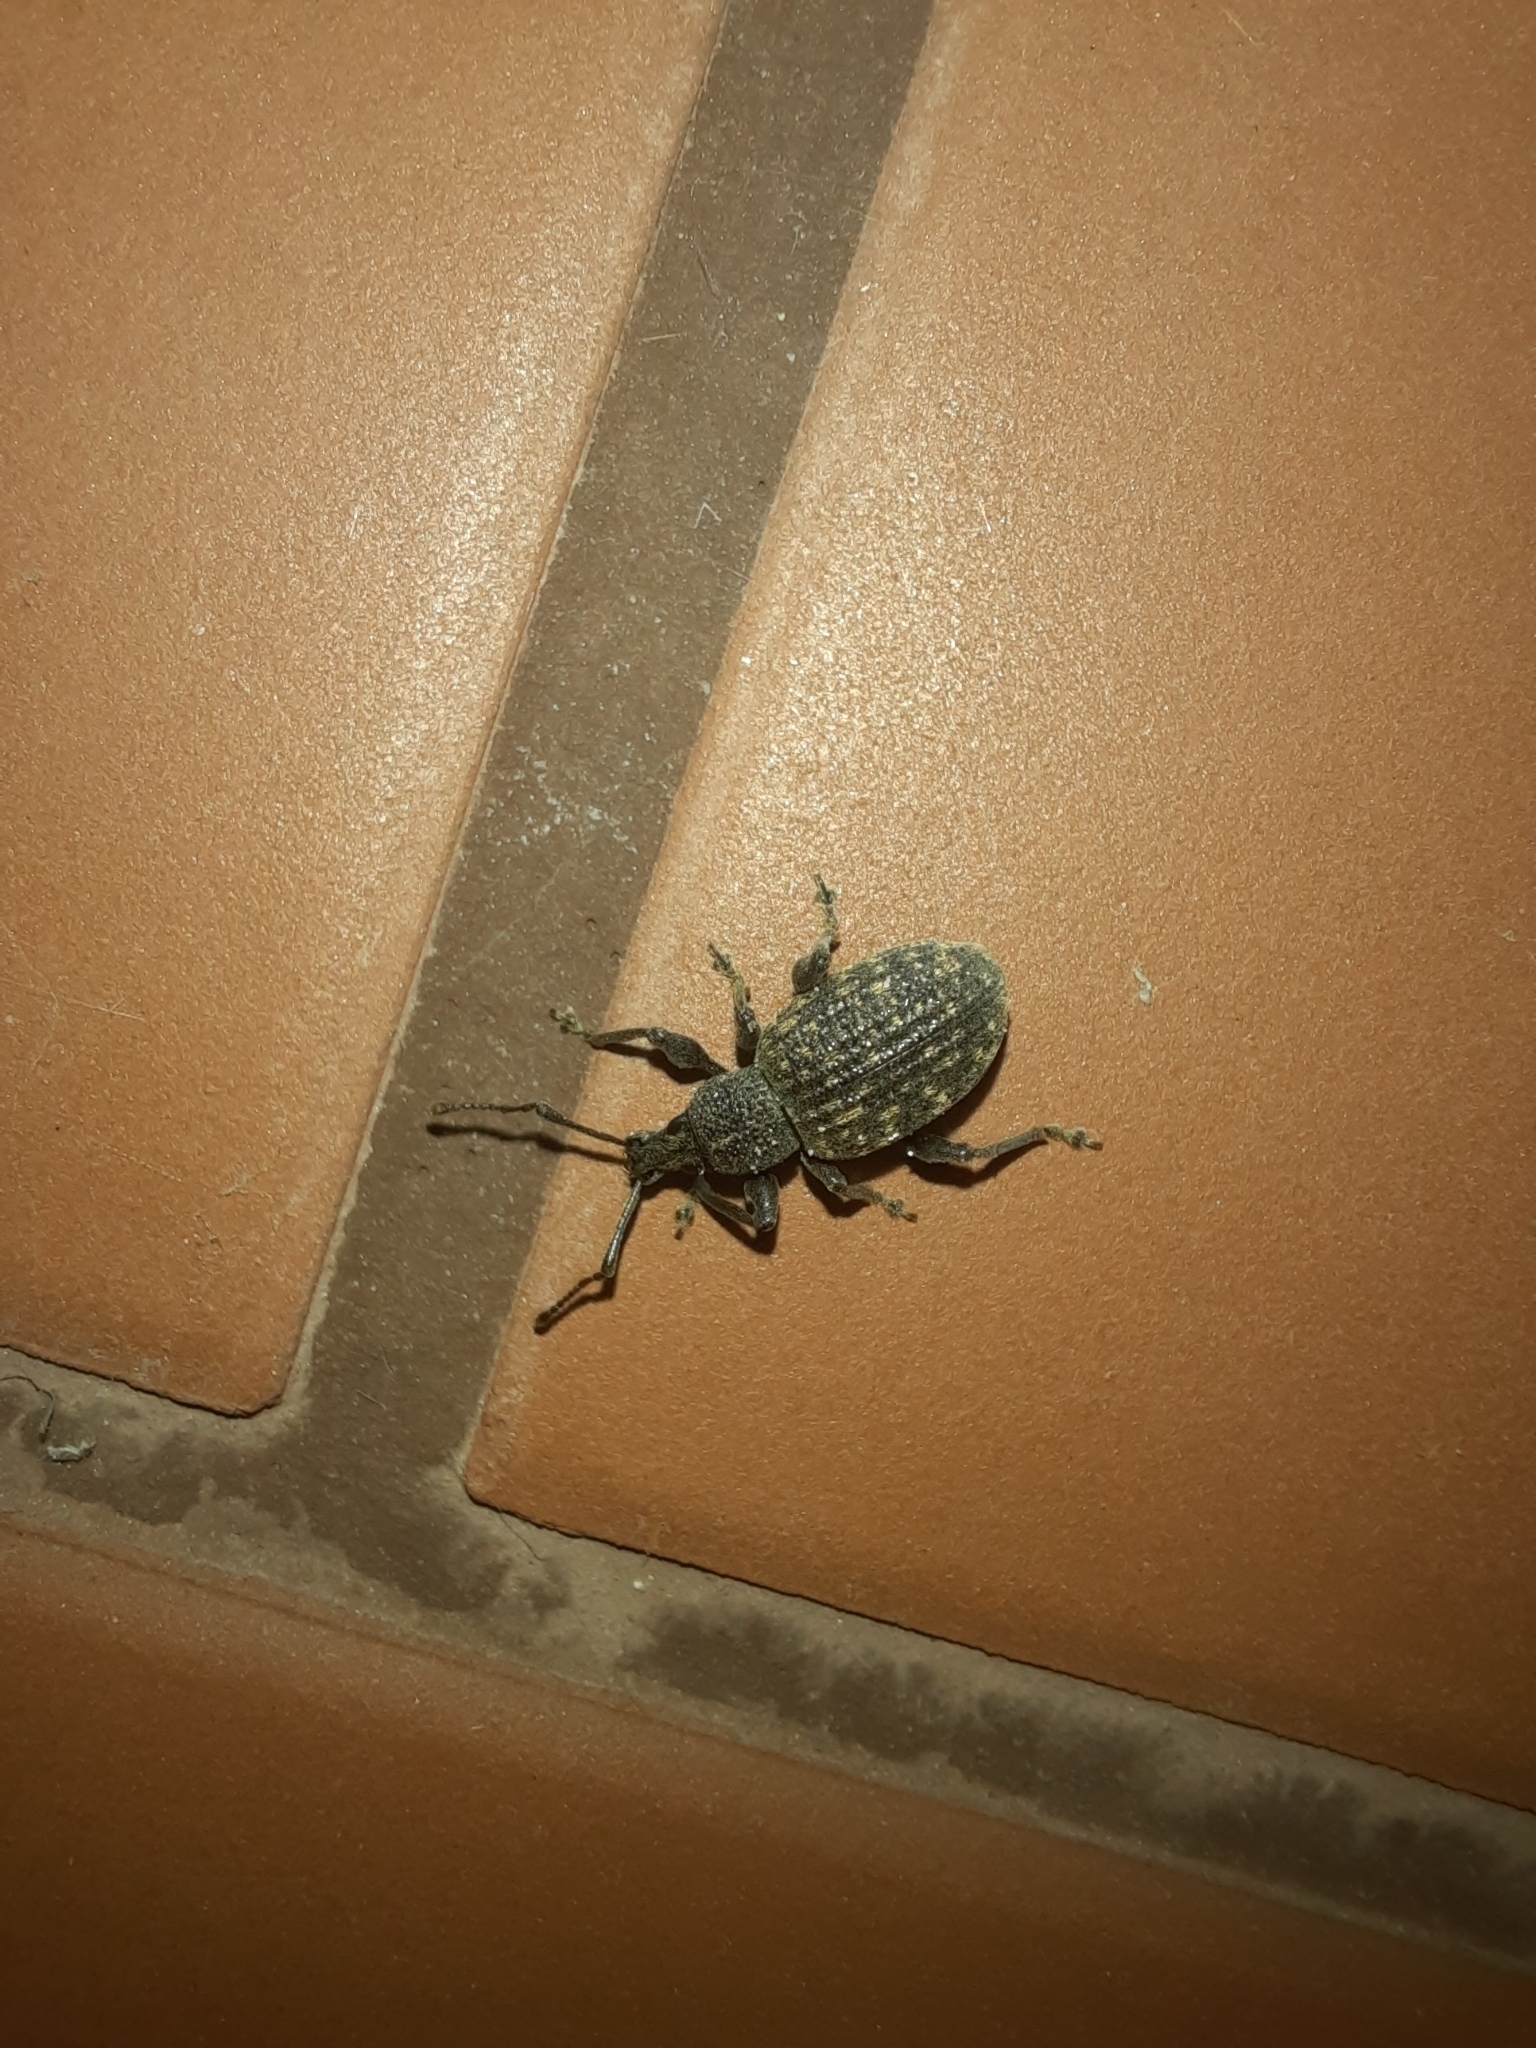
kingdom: Animalia
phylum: Arthropoda
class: Insecta
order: Coleoptera
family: Curculionidae
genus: Otiorhynchus
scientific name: Otiorhynchus sulcatus
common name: Black vine weevil
